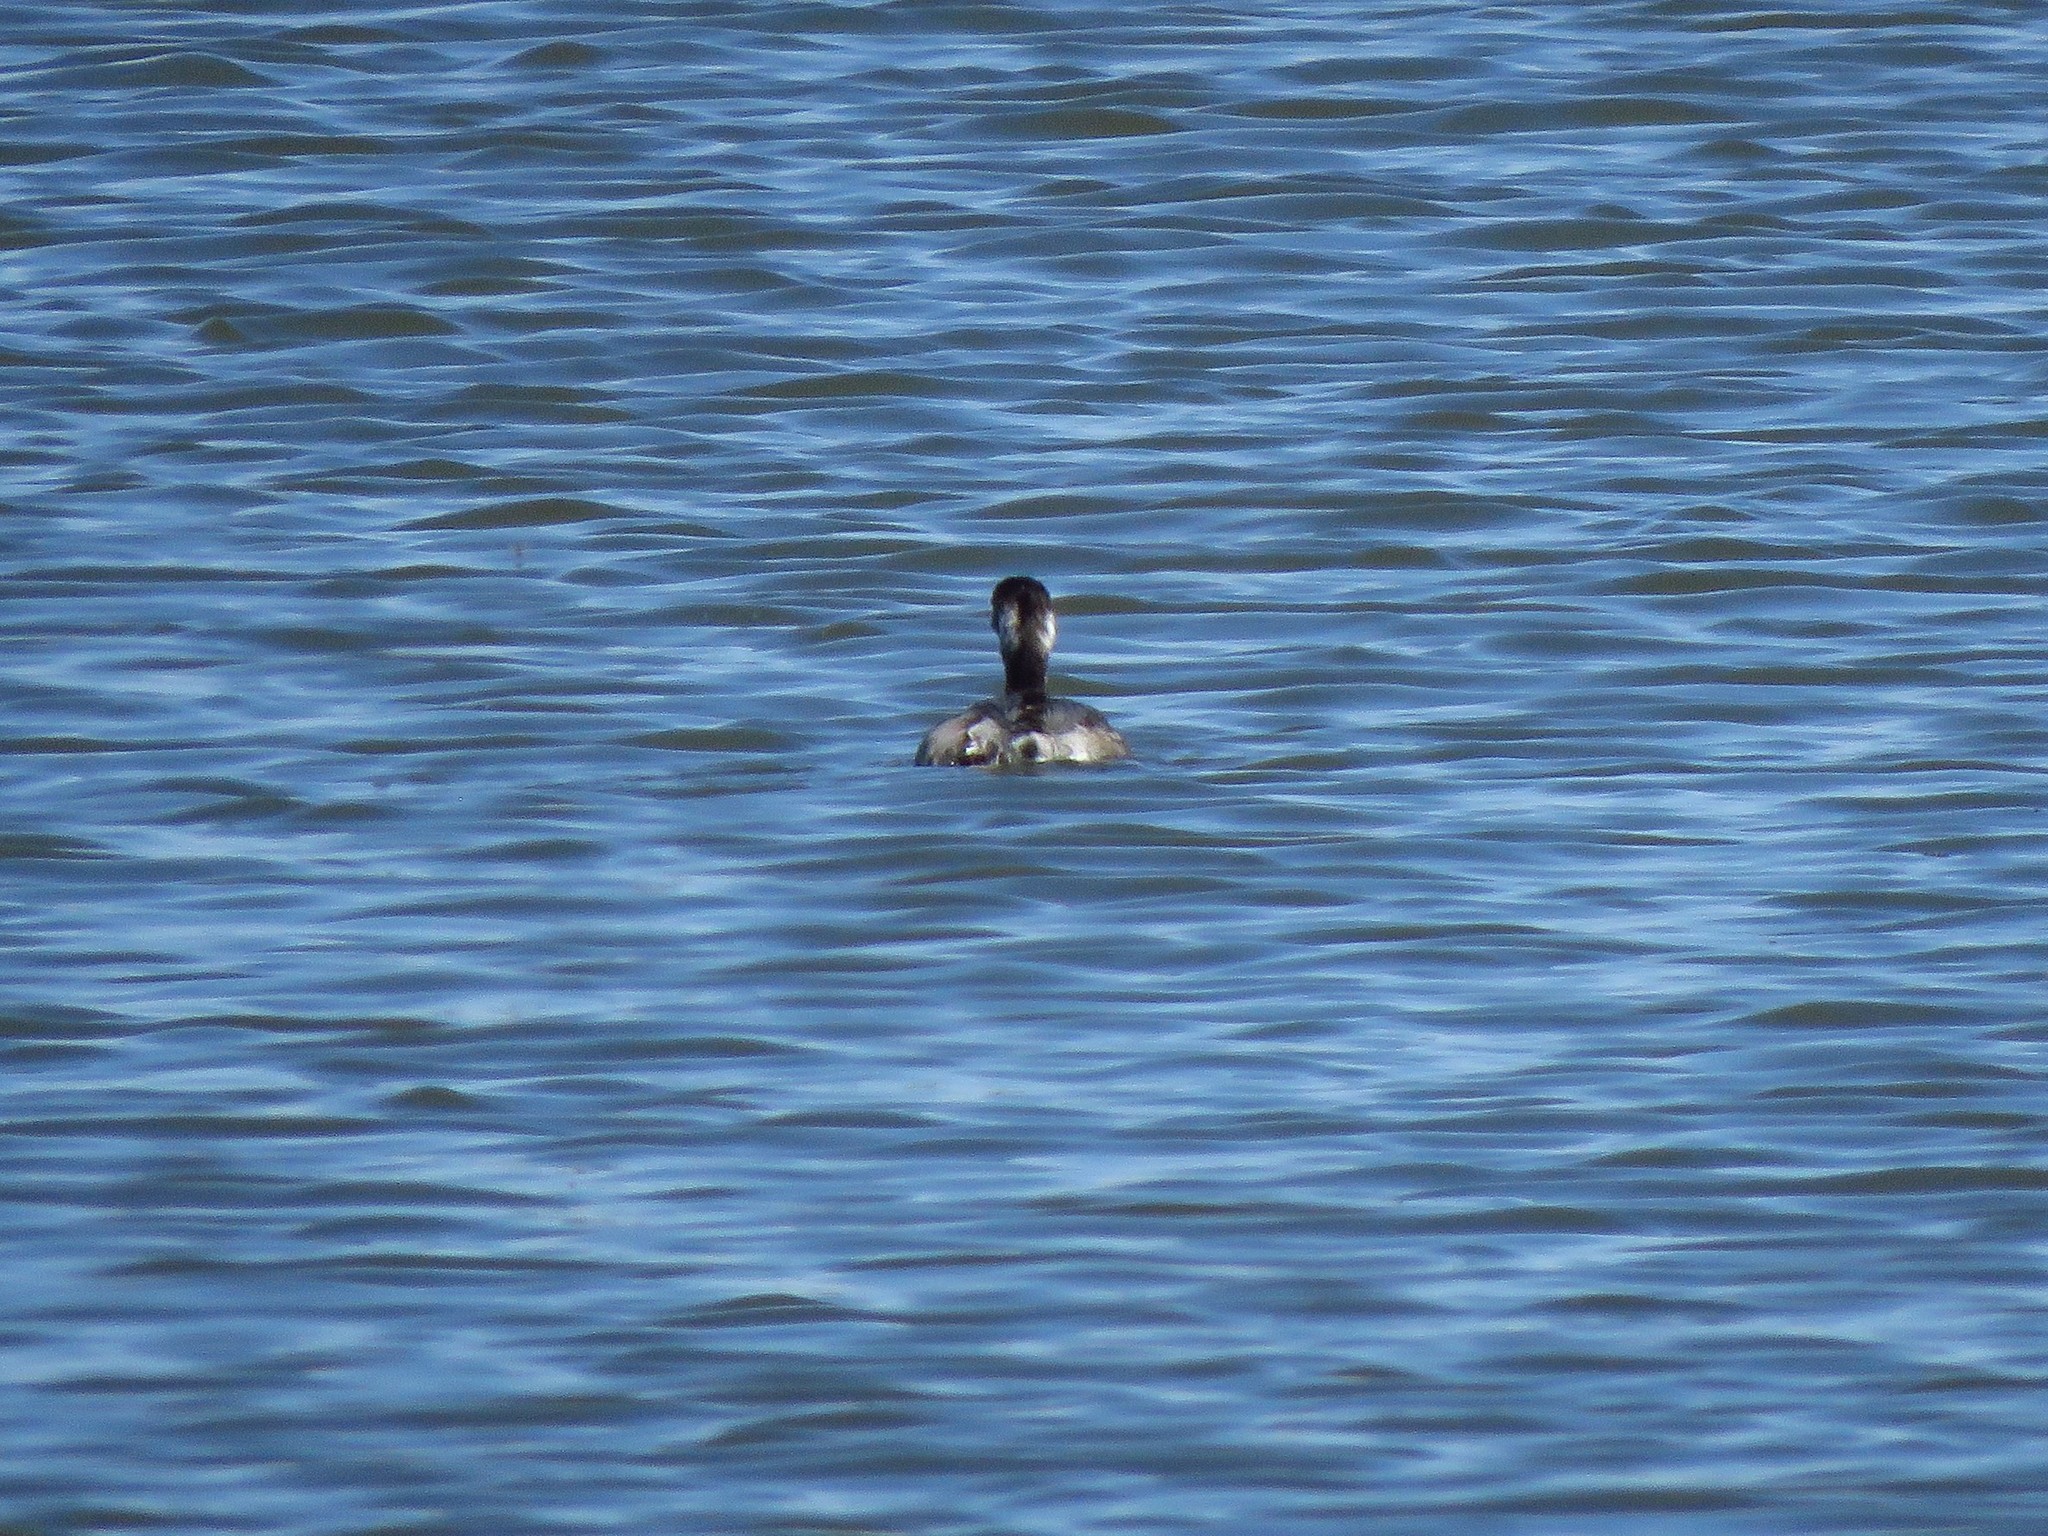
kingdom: Animalia
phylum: Chordata
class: Aves
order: Podicipediformes
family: Podicipedidae
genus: Podiceps
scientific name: Podiceps nigricollis
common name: Black-necked grebe
